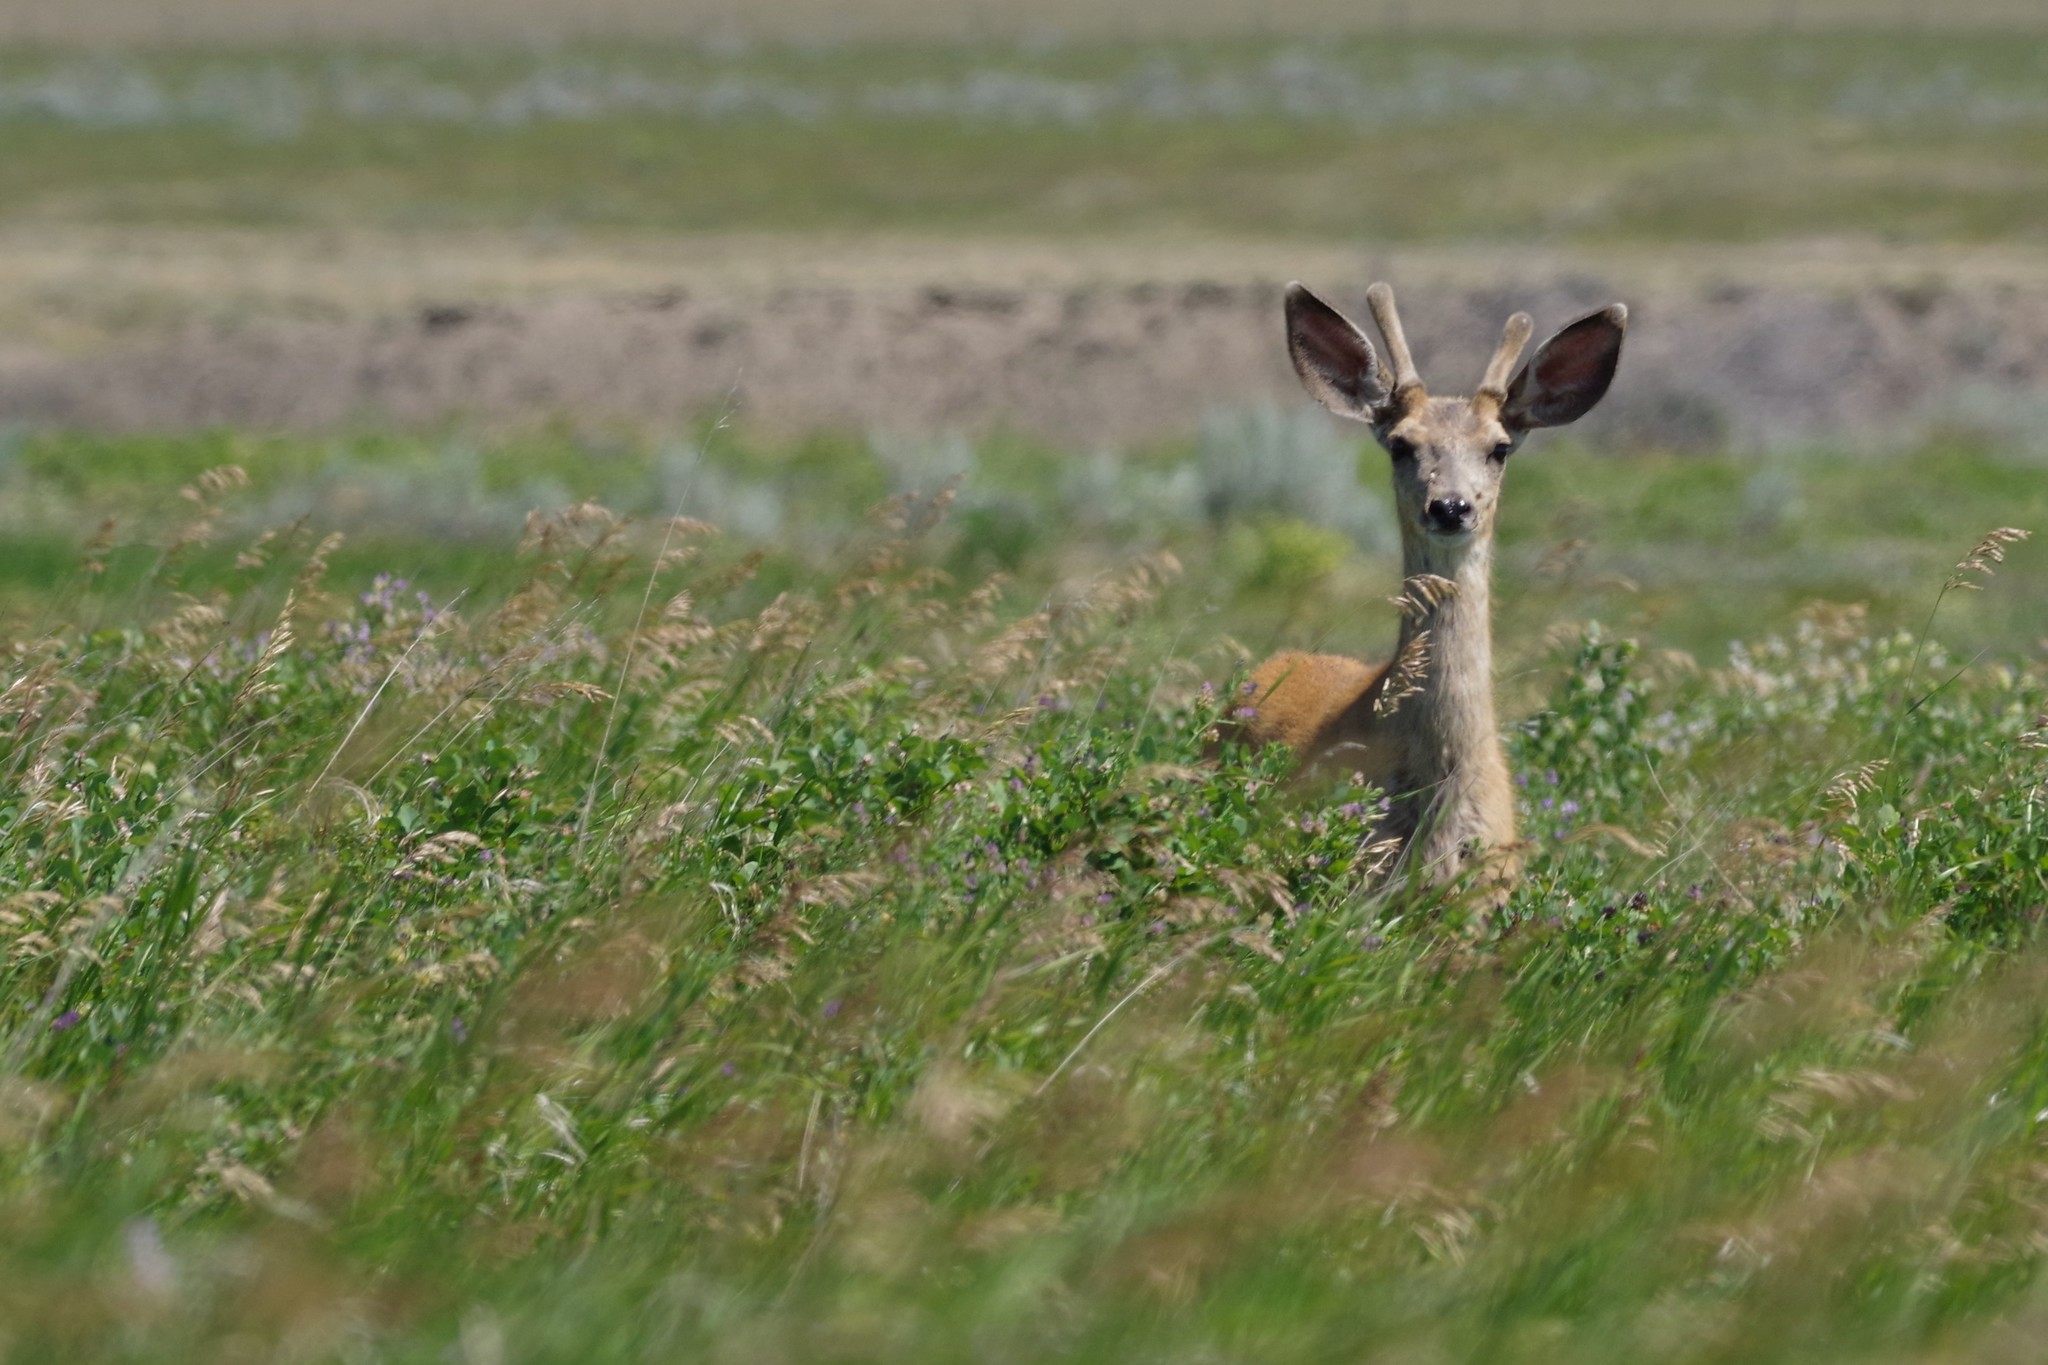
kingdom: Animalia
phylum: Chordata
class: Mammalia
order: Artiodactyla
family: Cervidae
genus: Odocoileus
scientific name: Odocoileus hemionus
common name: Mule deer
